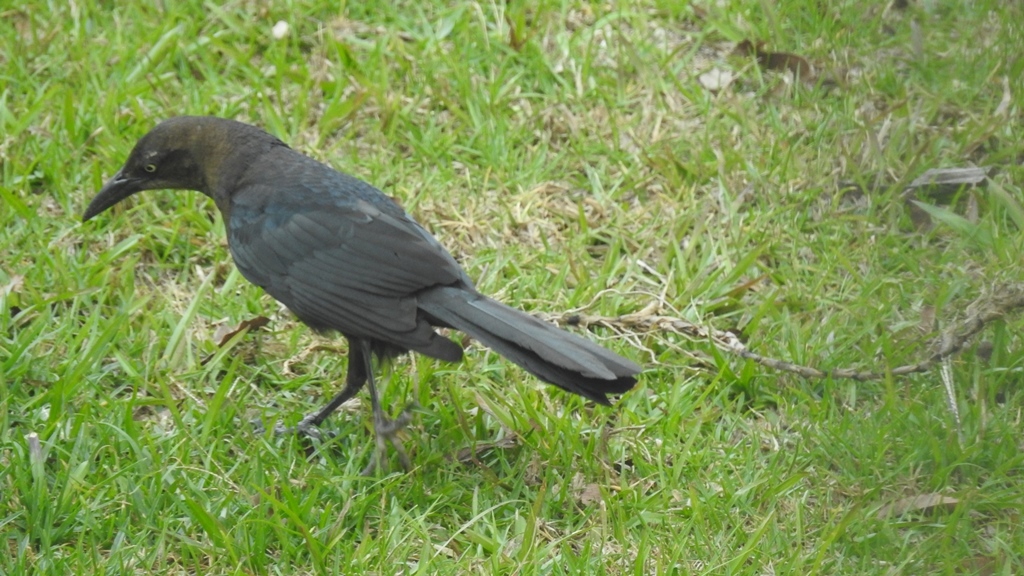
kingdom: Animalia
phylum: Chordata
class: Aves
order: Passeriformes
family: Icteridae
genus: Quiscalus
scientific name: Quiscalus mexicanus
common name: Great-tailed grackle
